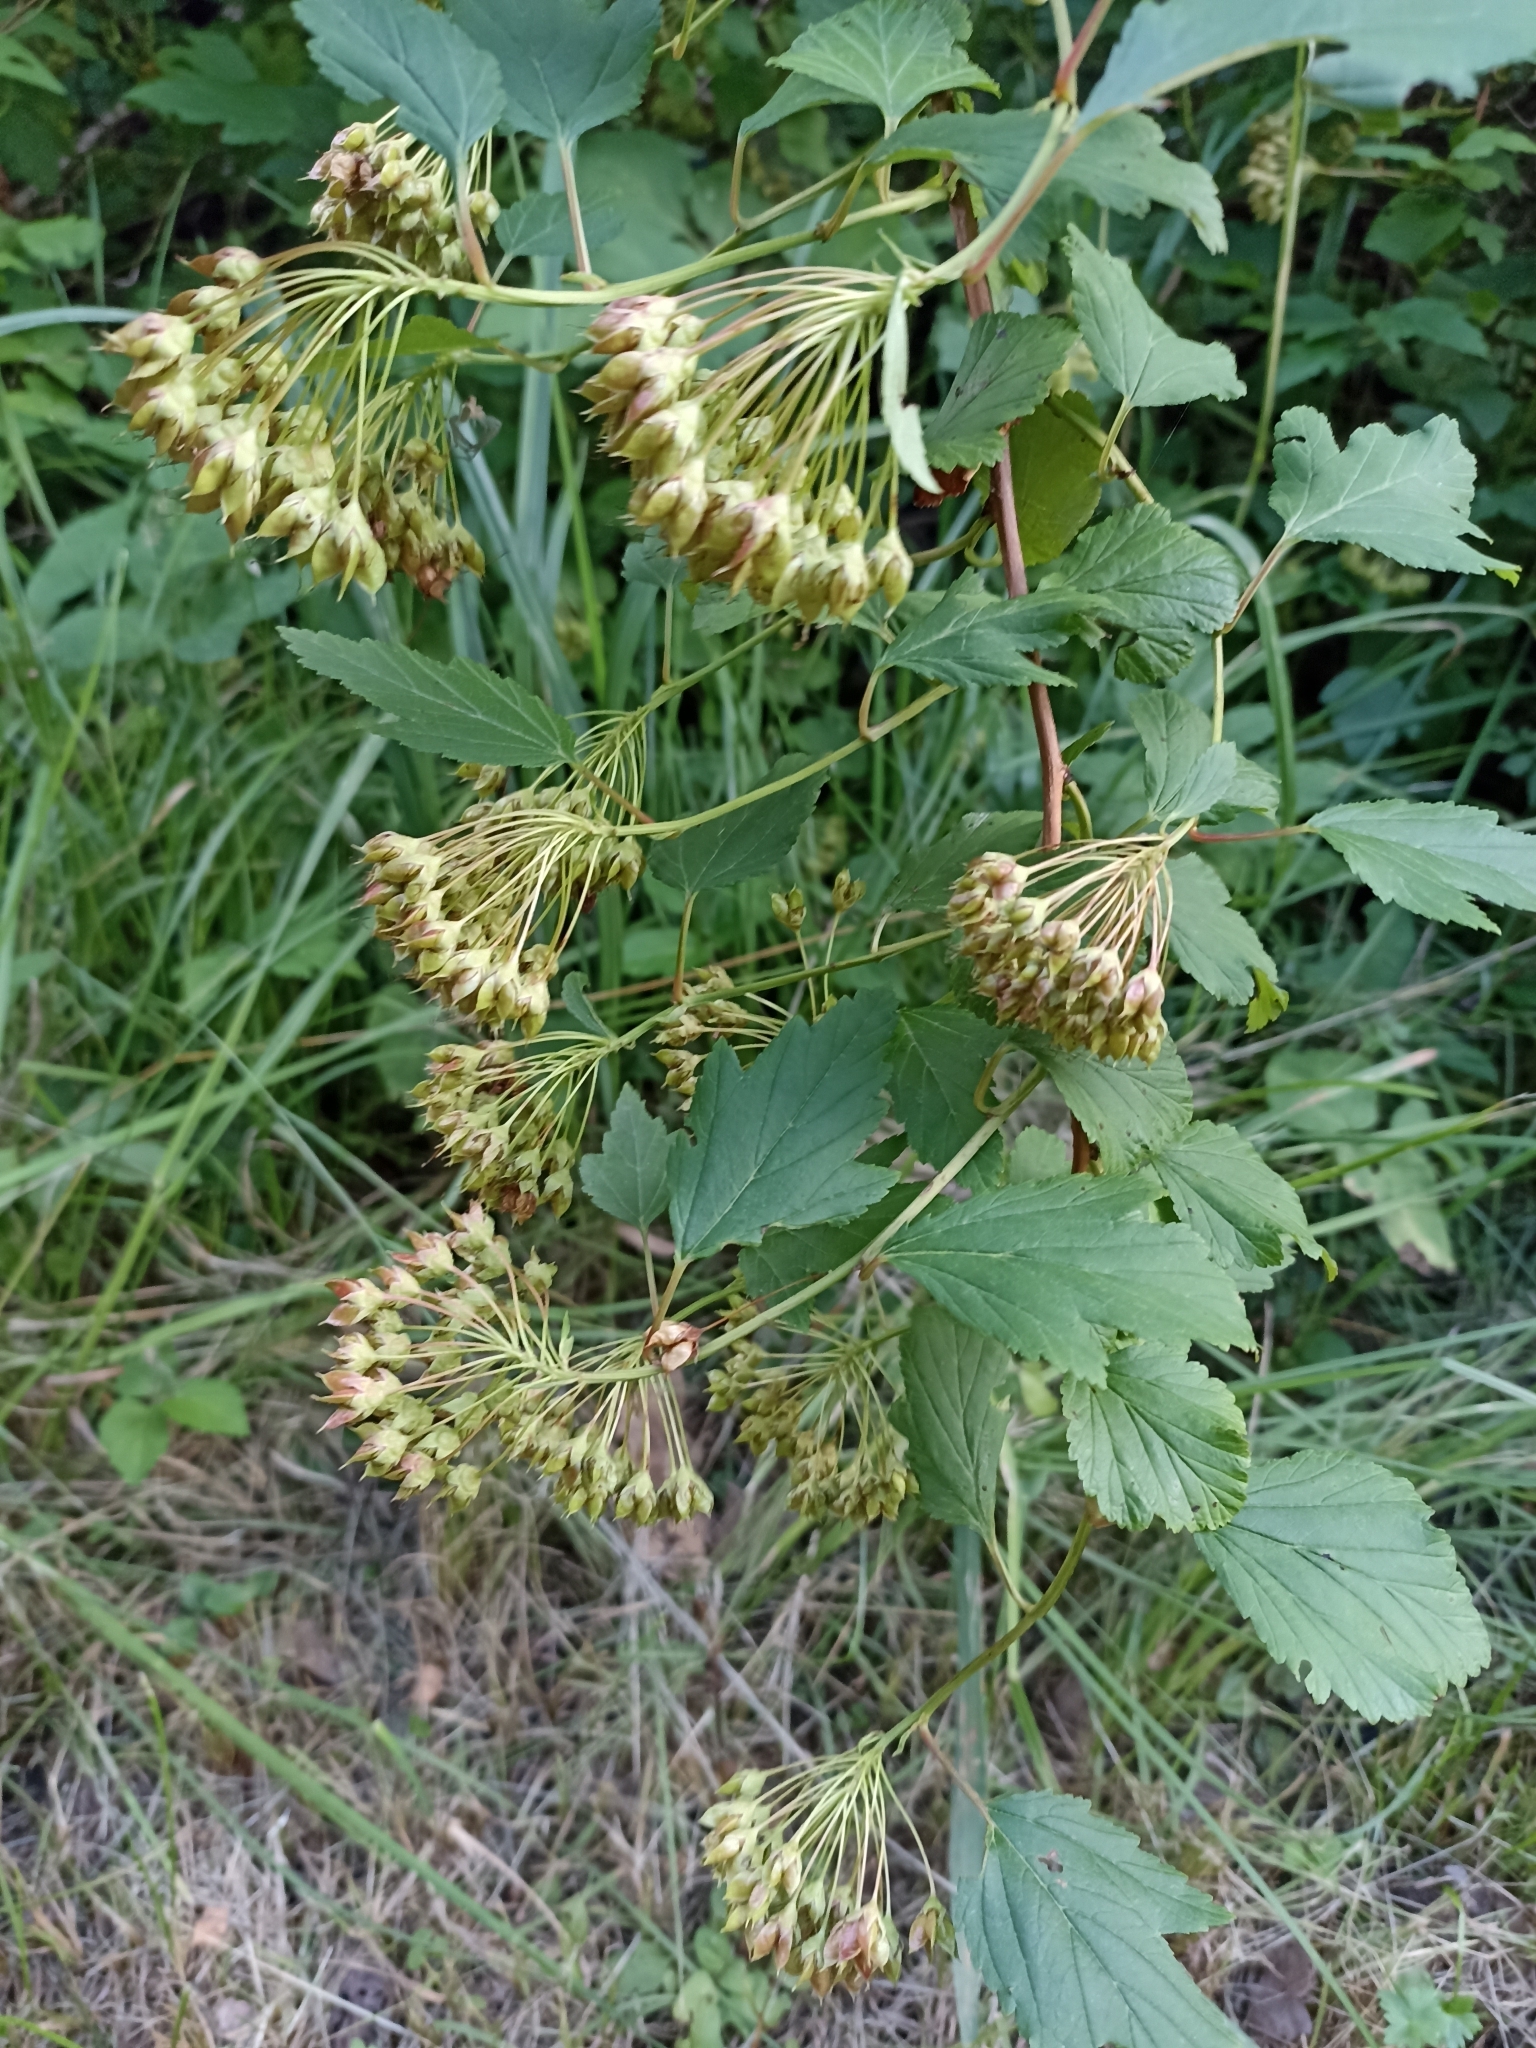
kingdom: Plantae
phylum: Tracheophyta
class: Magnoliopsida
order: Rosales
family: Rosaceae
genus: Physocarpus
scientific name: Physocarpus opulifolius
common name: Ninebark
